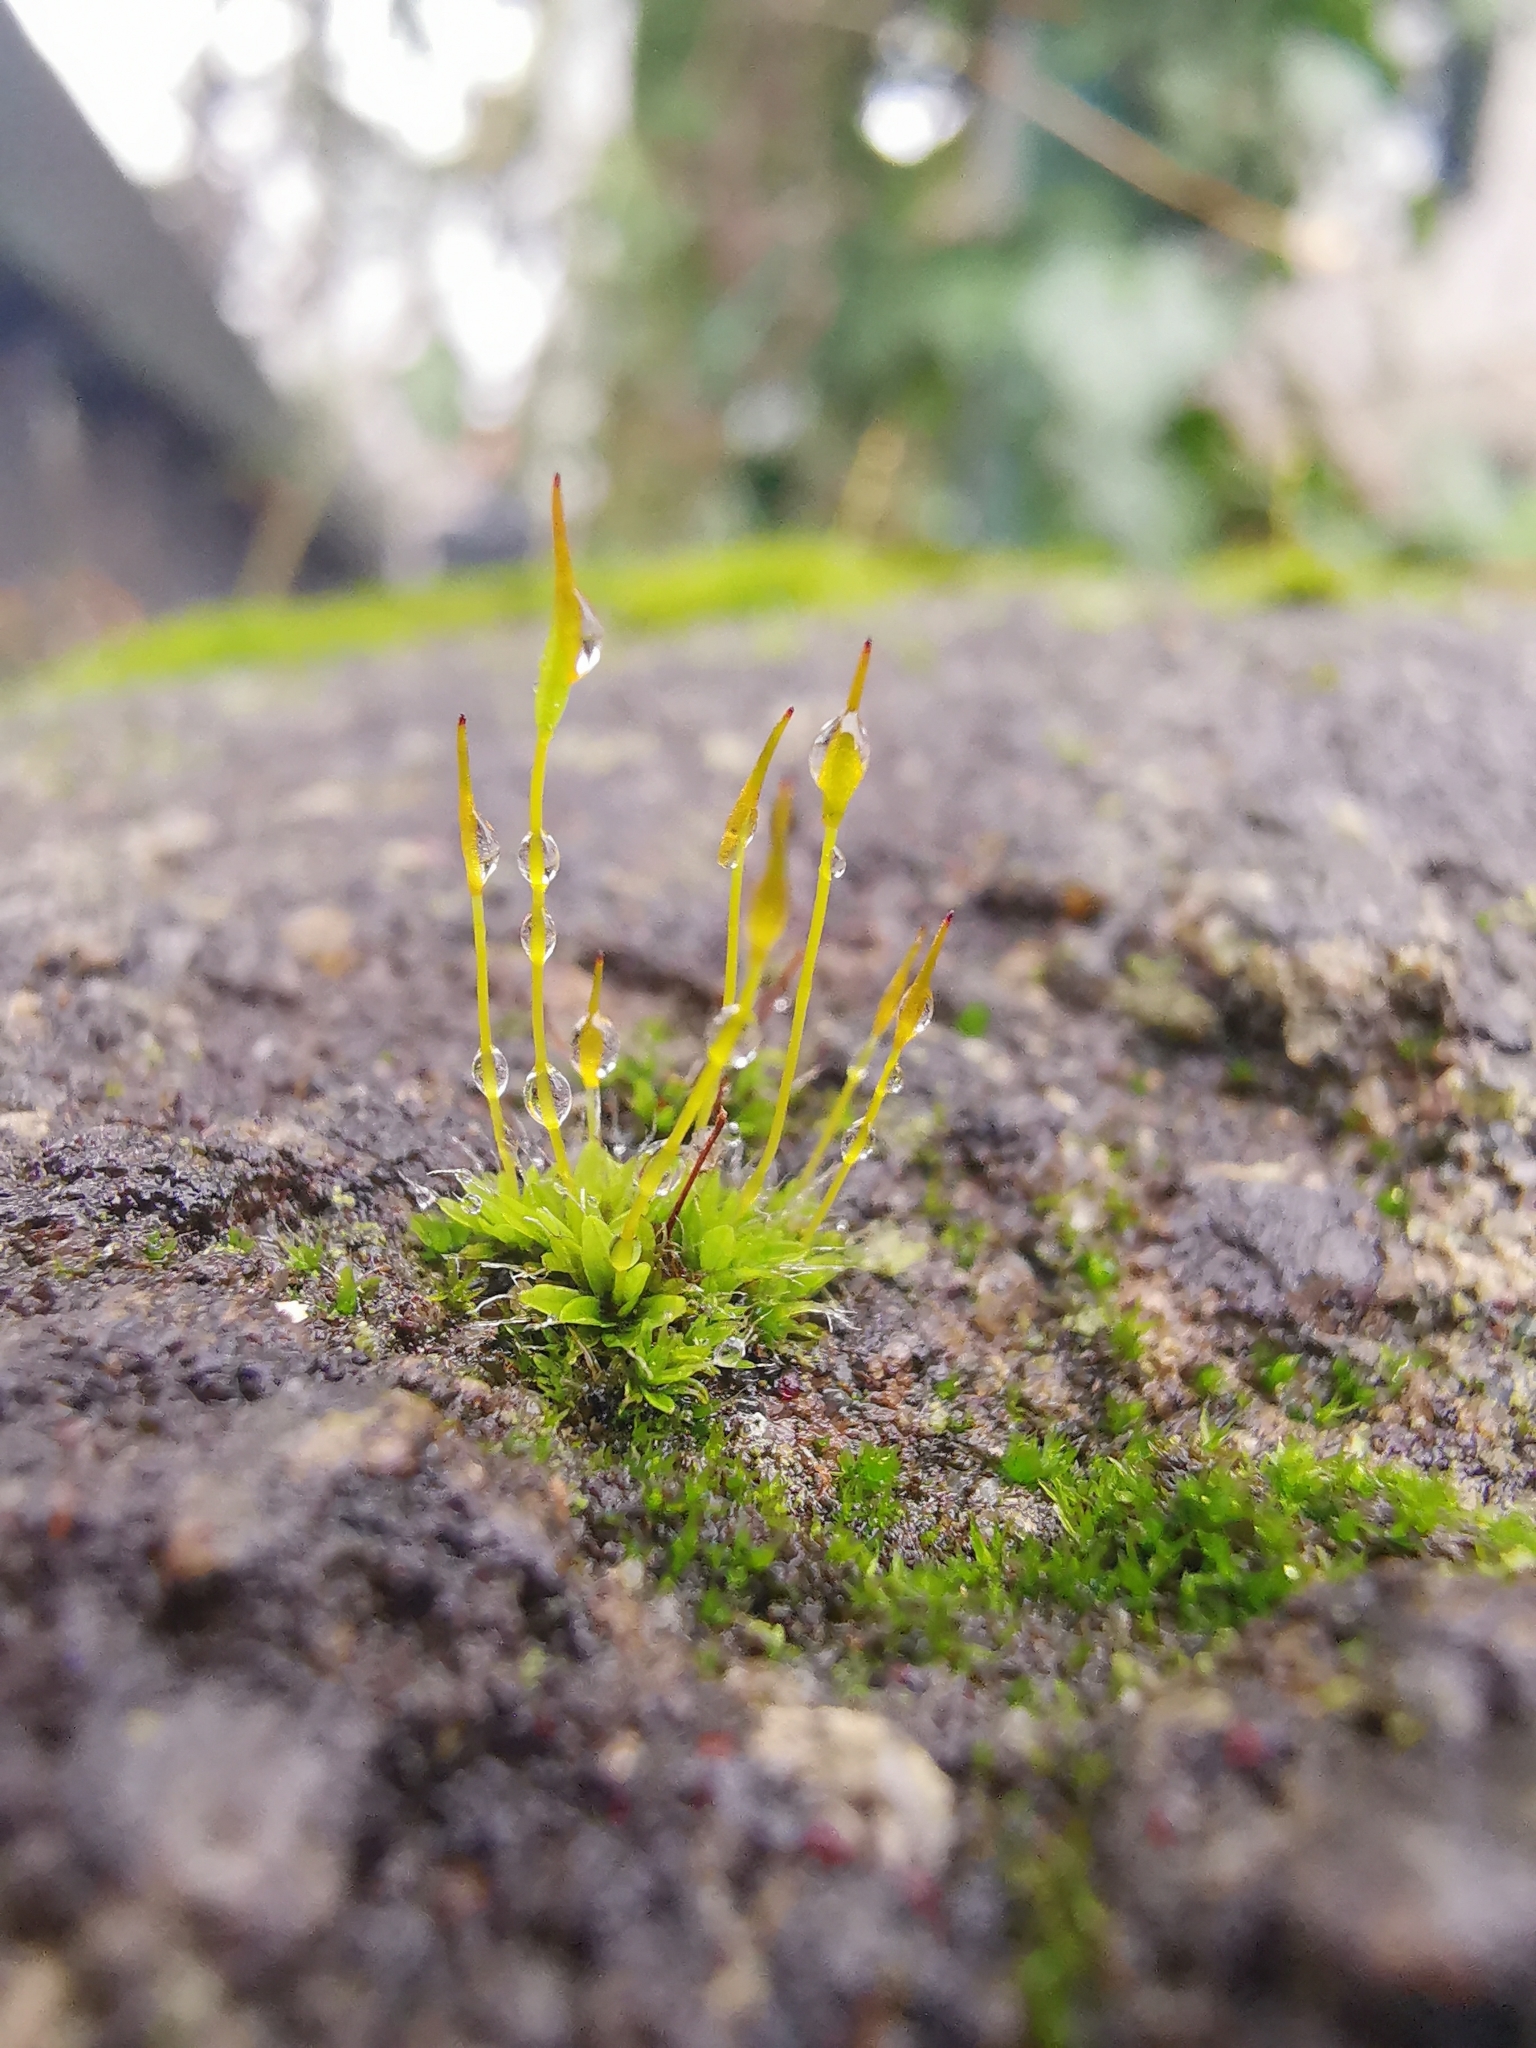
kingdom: Plantae
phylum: Bryophyta
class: Bryopsida
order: Pottiales
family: Pottiaceae
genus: Tortula
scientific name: Tortula muralis
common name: Wall screw-moss
